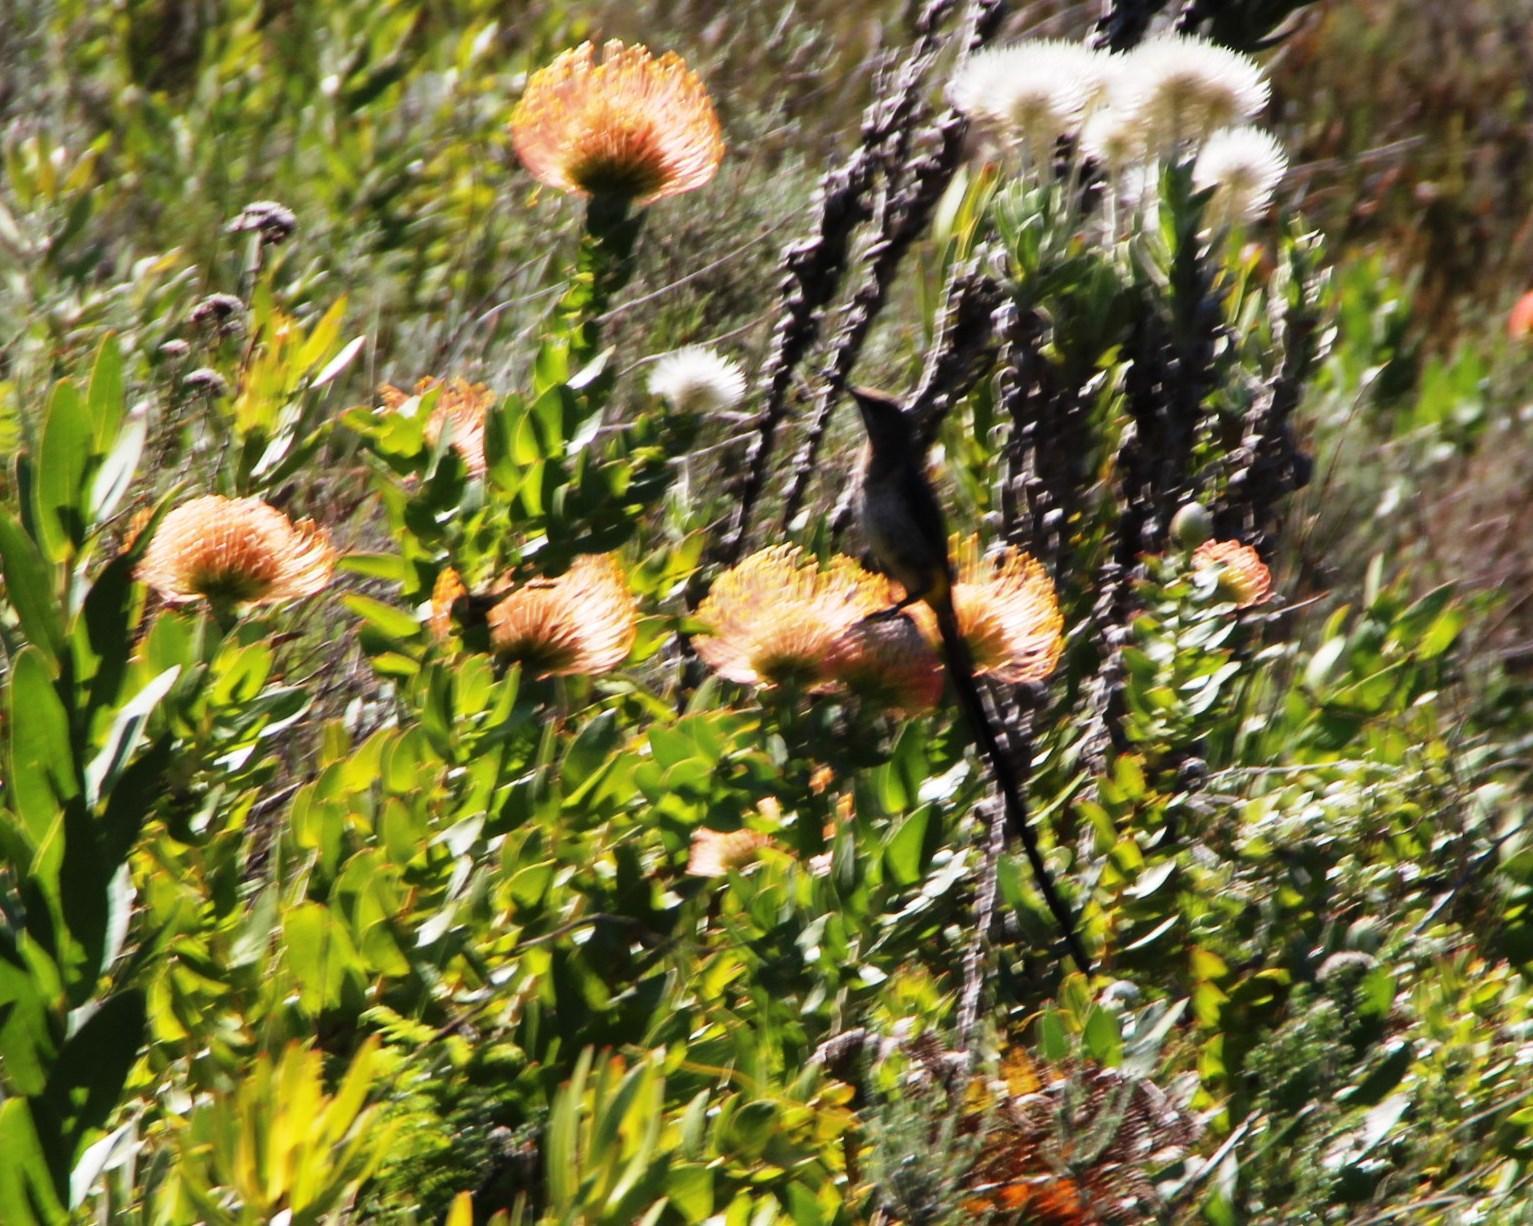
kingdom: Animalia
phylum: Chordata
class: Aves
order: Passeriformes
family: Promeropidae
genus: Promerops
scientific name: Promerops cafer
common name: Cape sugarbird
